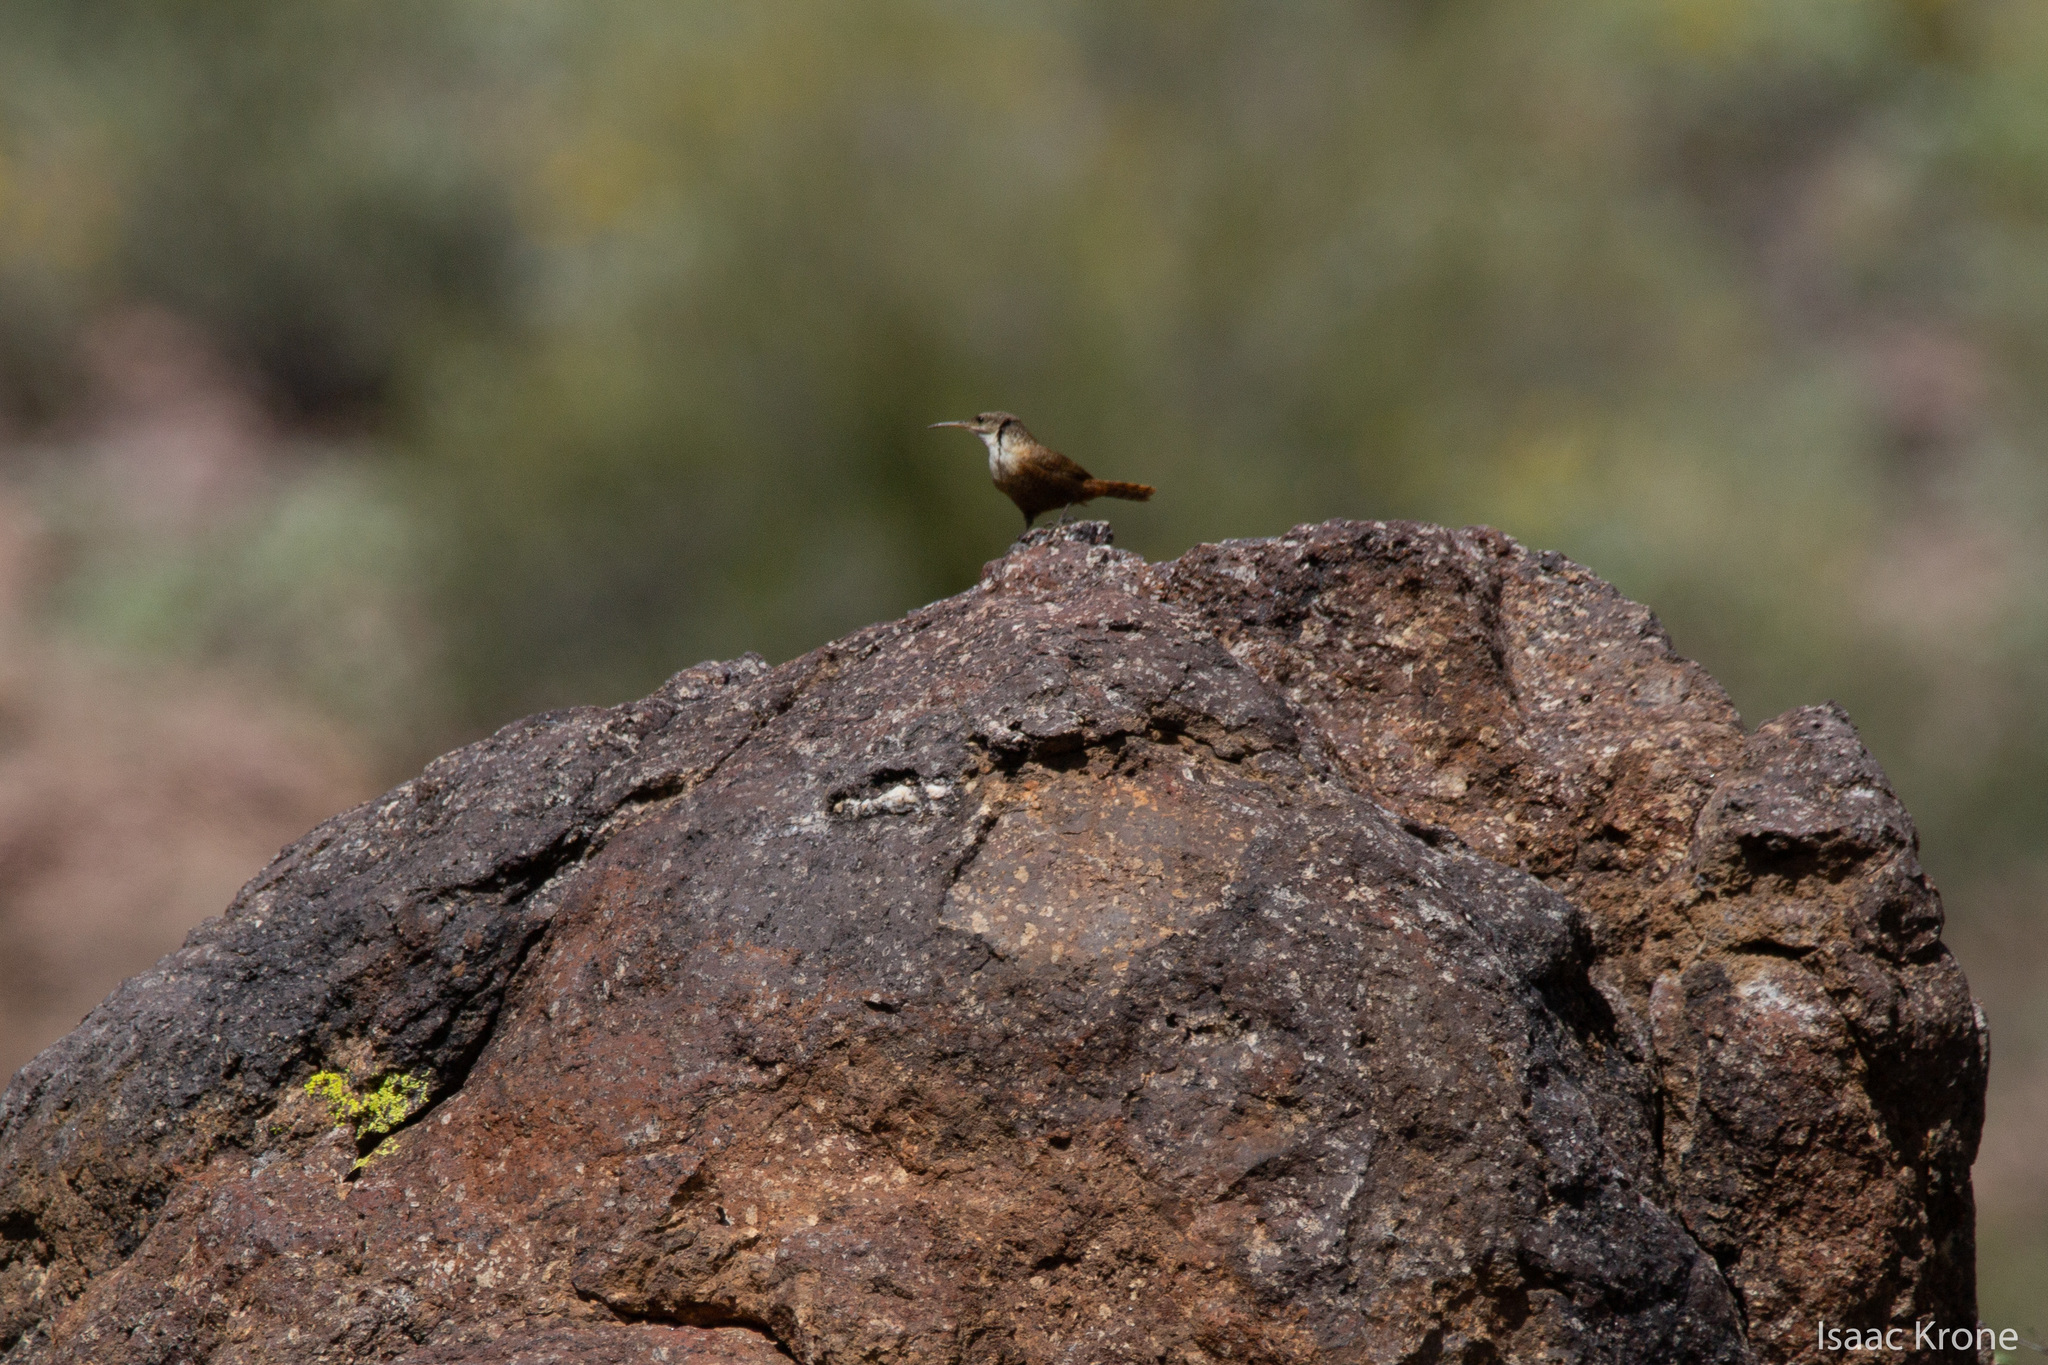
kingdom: Animalia
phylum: Chordata
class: Aves
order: Passeriformes
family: Troglodytidae
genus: Catherpes
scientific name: Catherpes mexicanus
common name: Canyon wren
